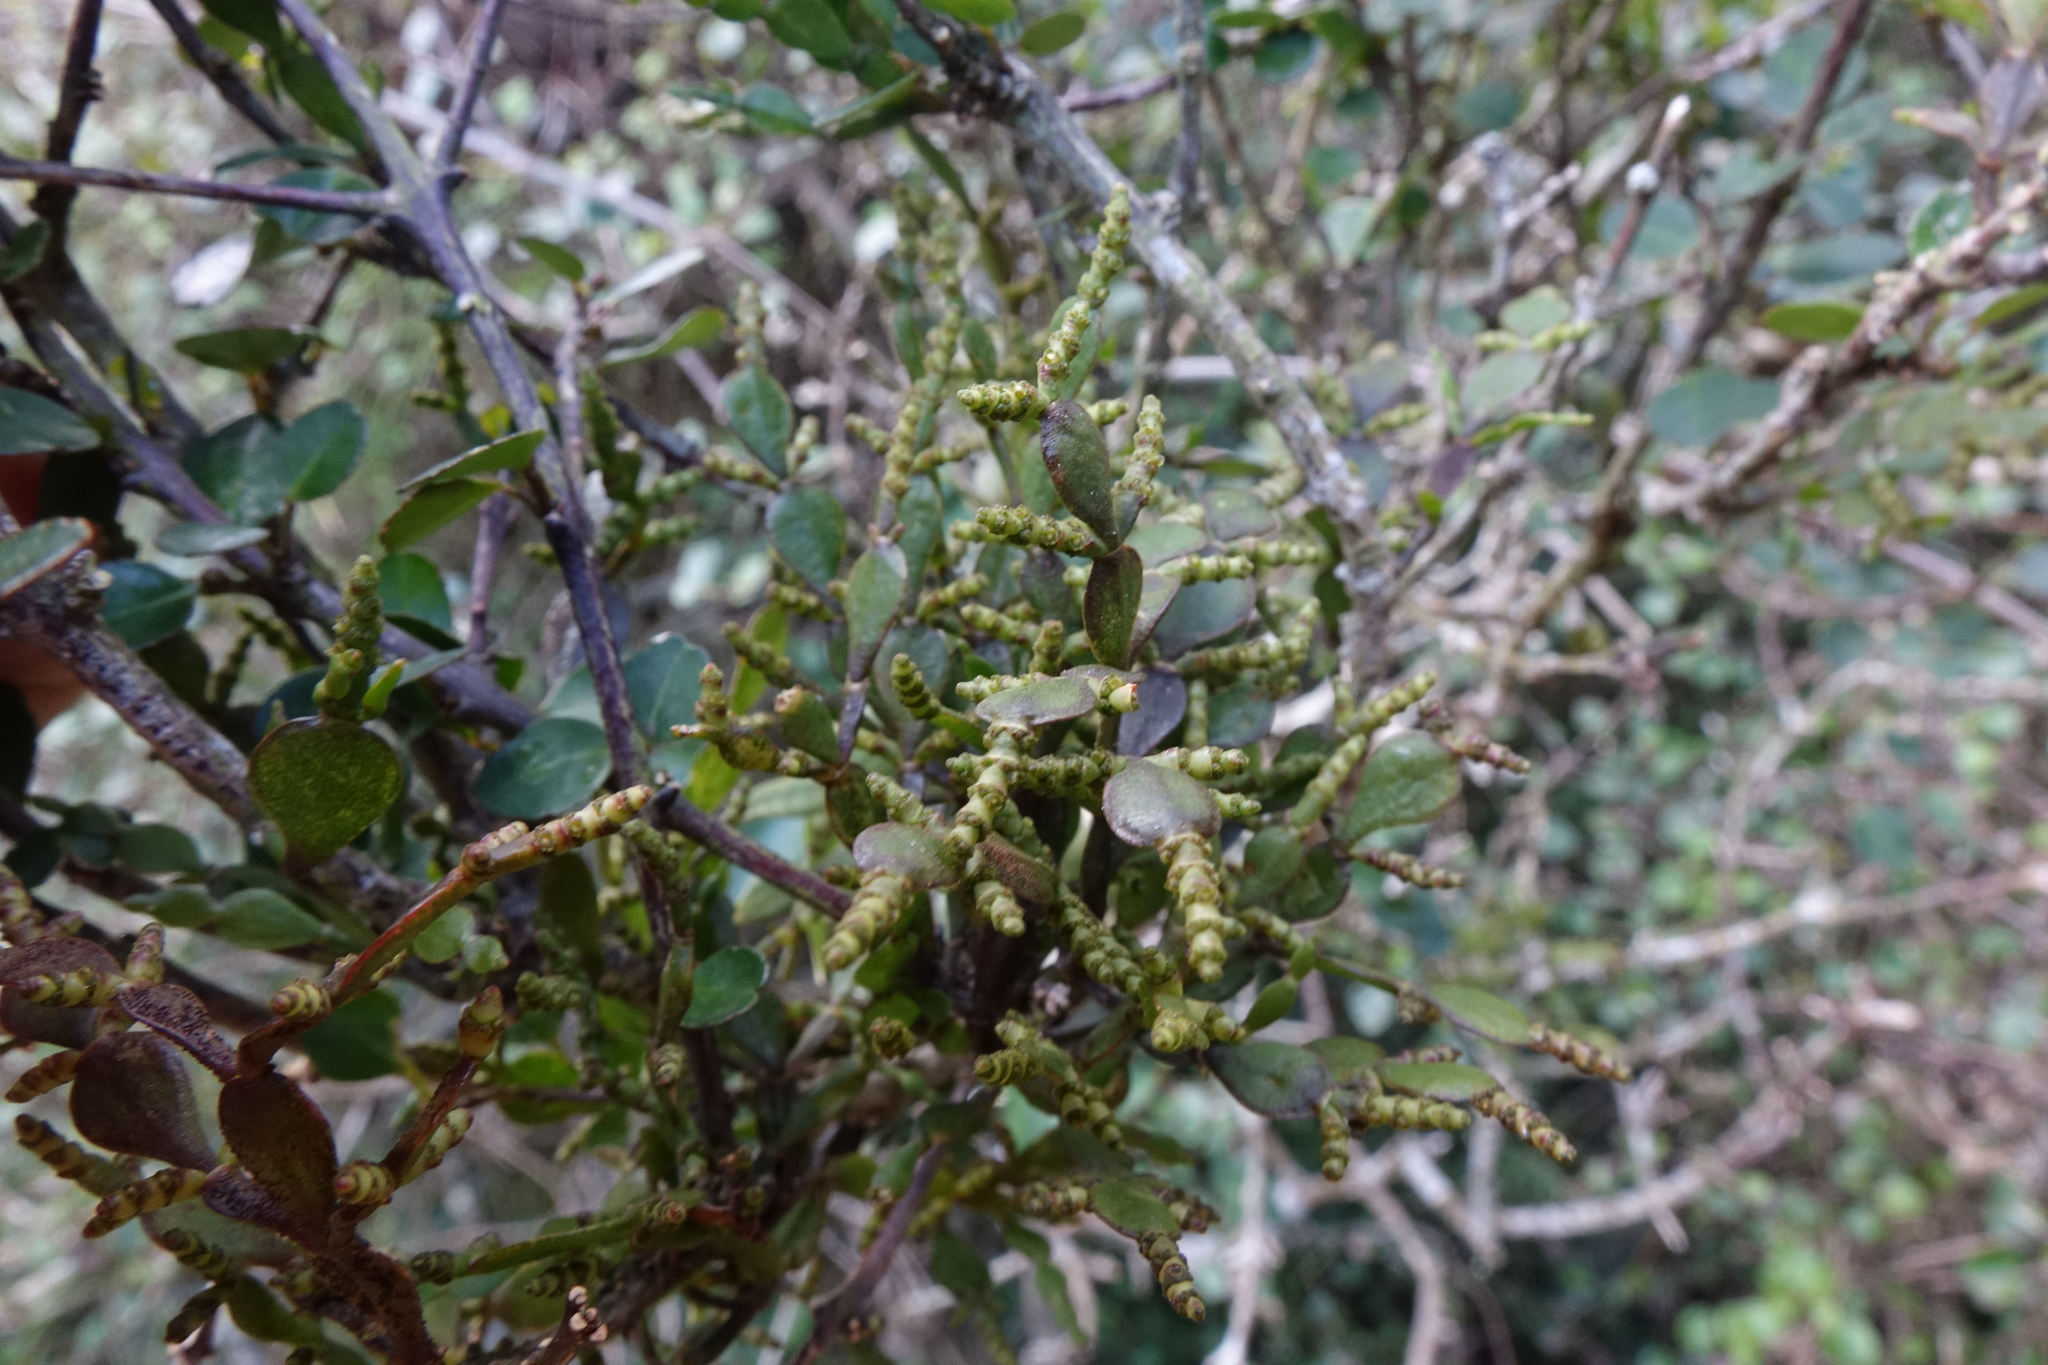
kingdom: Plantae
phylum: Tracheophyta
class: Magnoliopsida
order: Santalales
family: Viscaceae
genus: Korthalsella
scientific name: Korthalsella lindsayi
